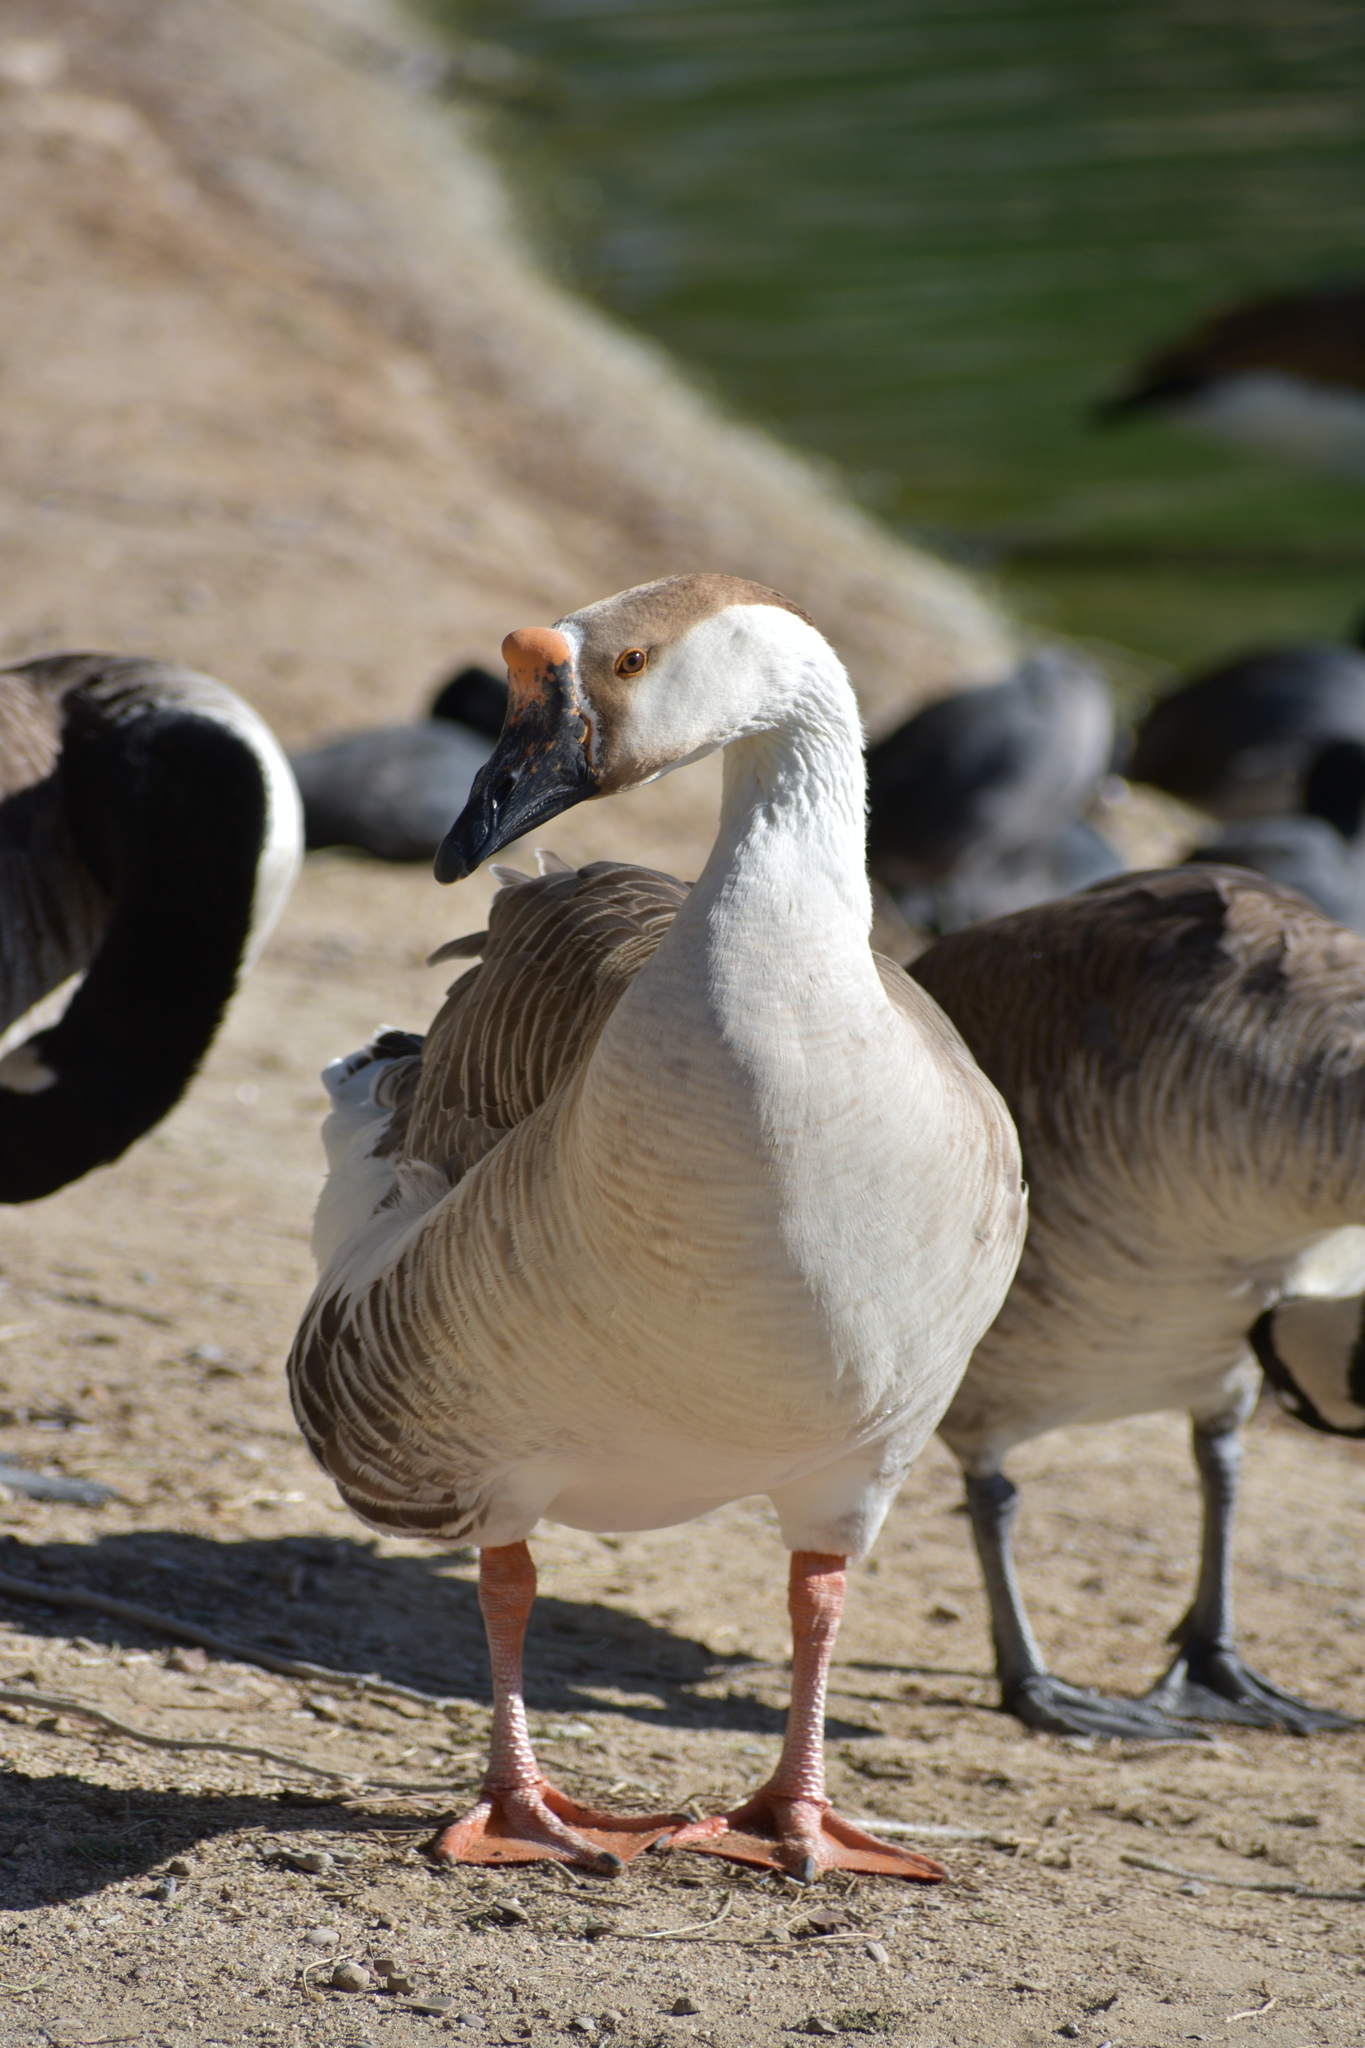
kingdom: Animalia
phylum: Chordata
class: Aves
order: Anseriformes
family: Anatidae
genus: Anser
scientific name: Anser cygnoides
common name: Swan goose
